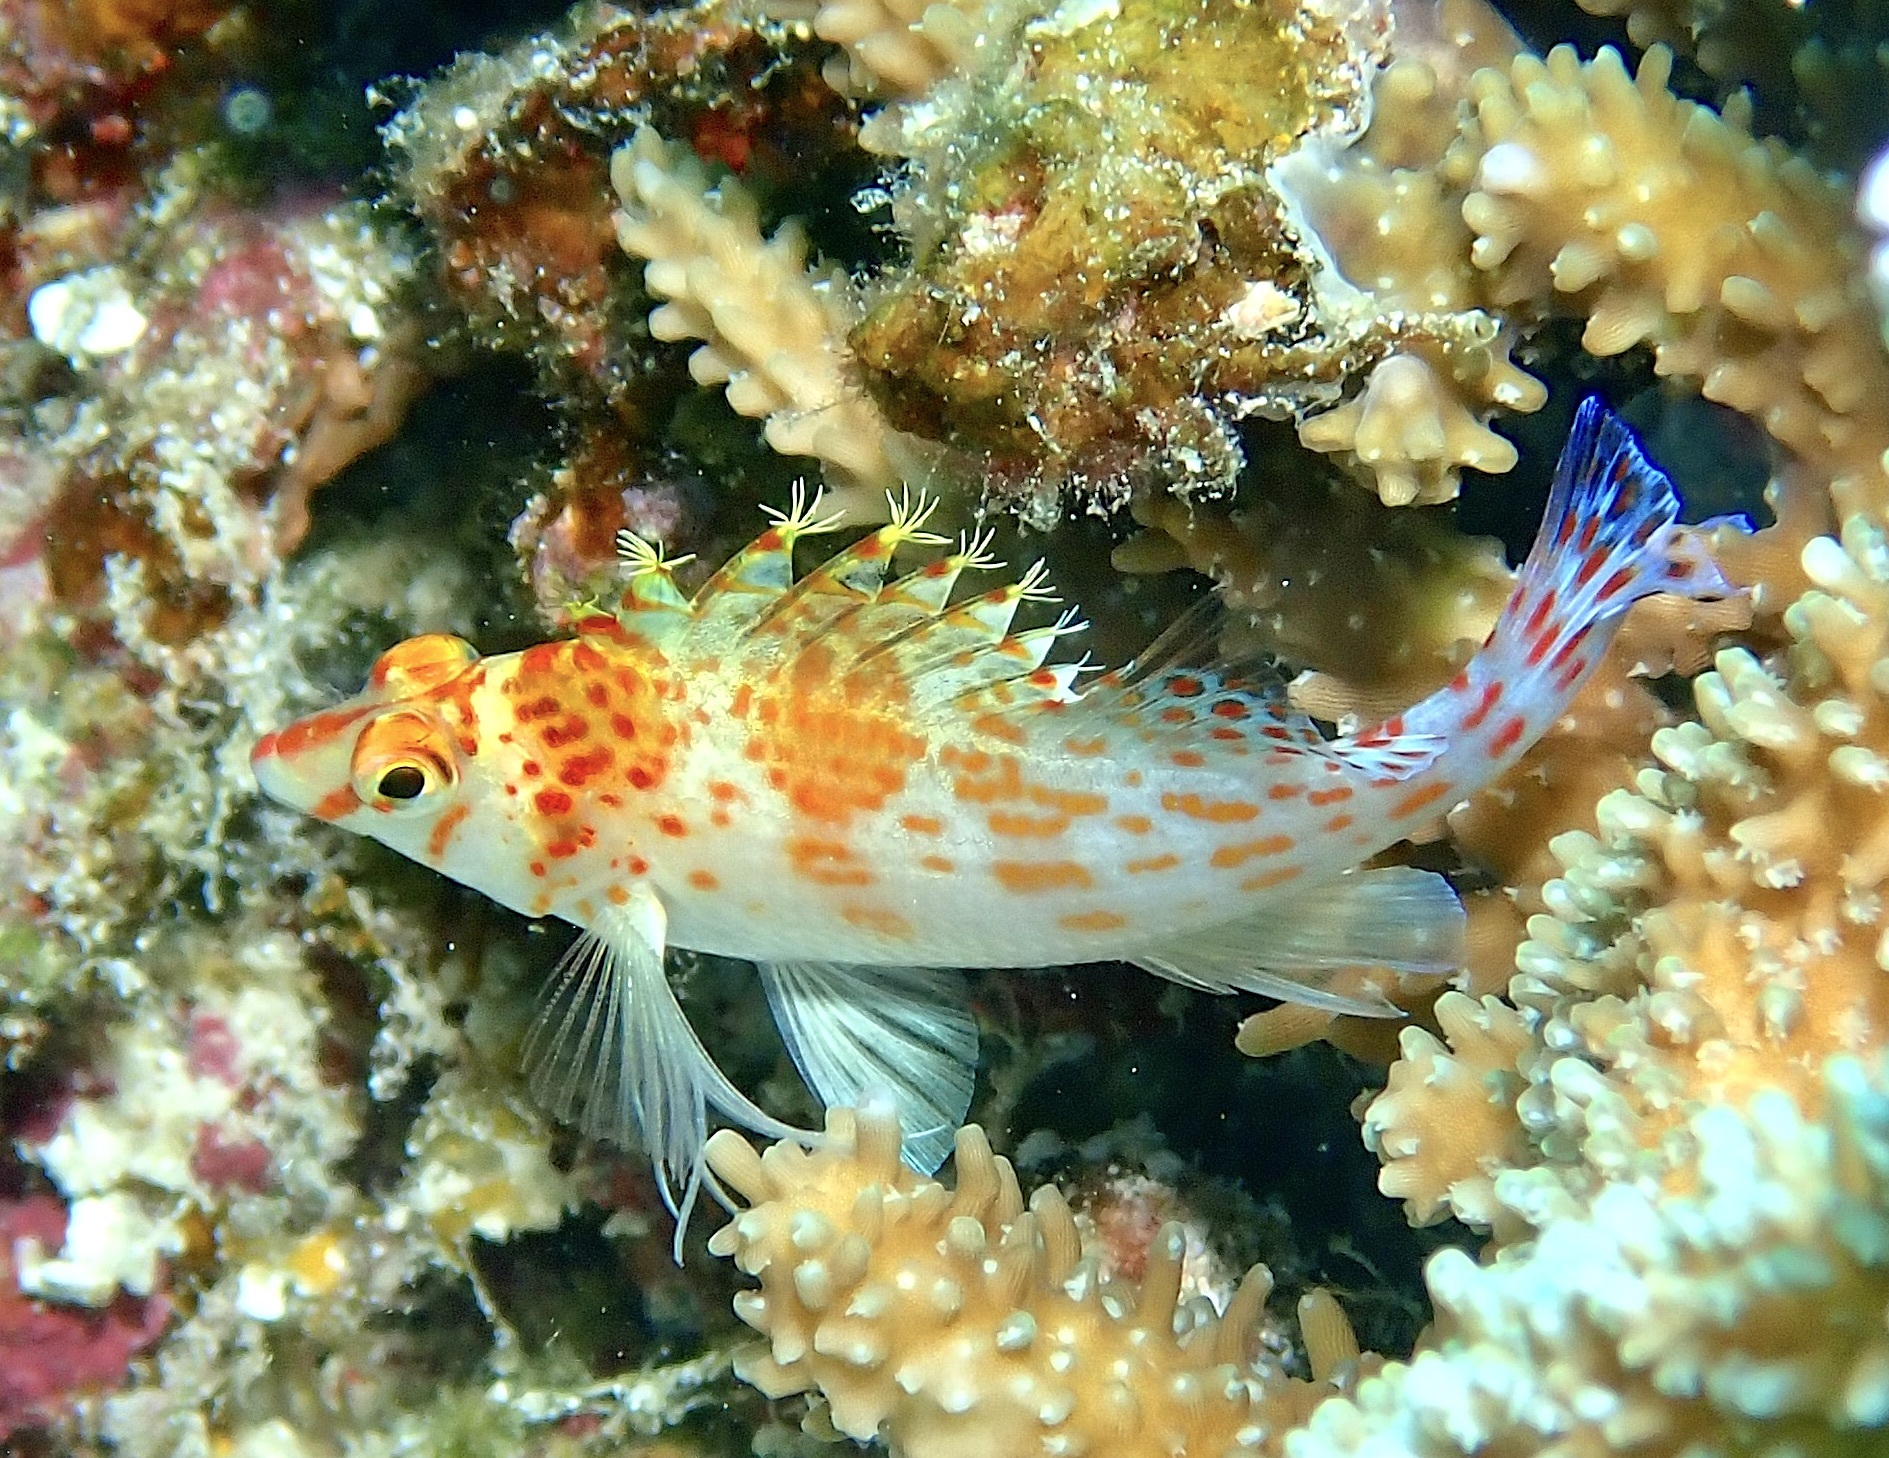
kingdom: Animalia
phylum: Chordata
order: Perciformes
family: Cirrhitidae
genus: Cirrhitichthys
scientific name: Cirrhitichthys falco
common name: Coral hawkfish
